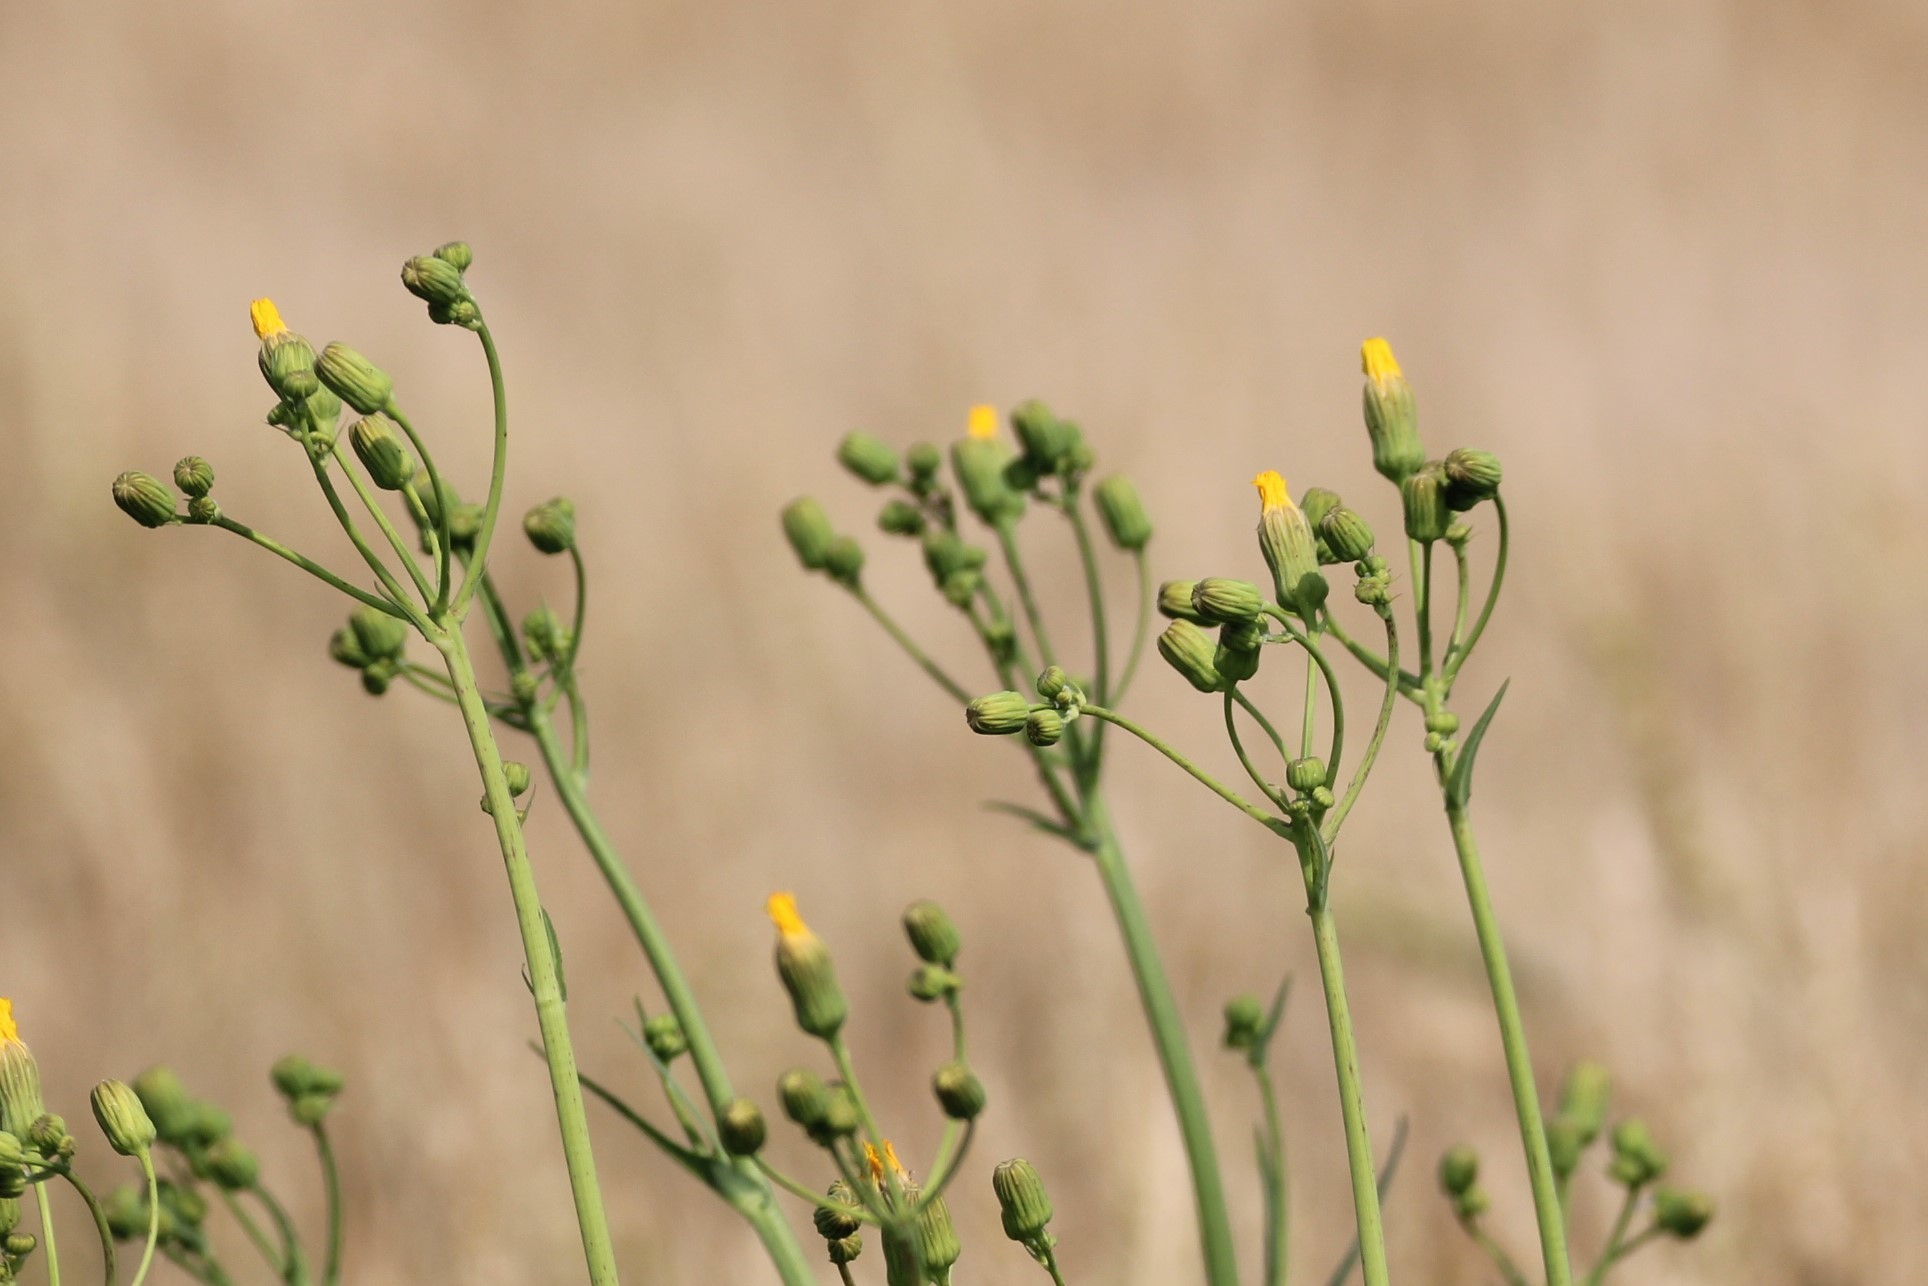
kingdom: Plantae
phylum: Tracheophyta
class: Magnoliopsida
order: Asterales
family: Asteraceae
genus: Sonchus
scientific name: Sonchus arvensis
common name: Perennial sow-thistle
